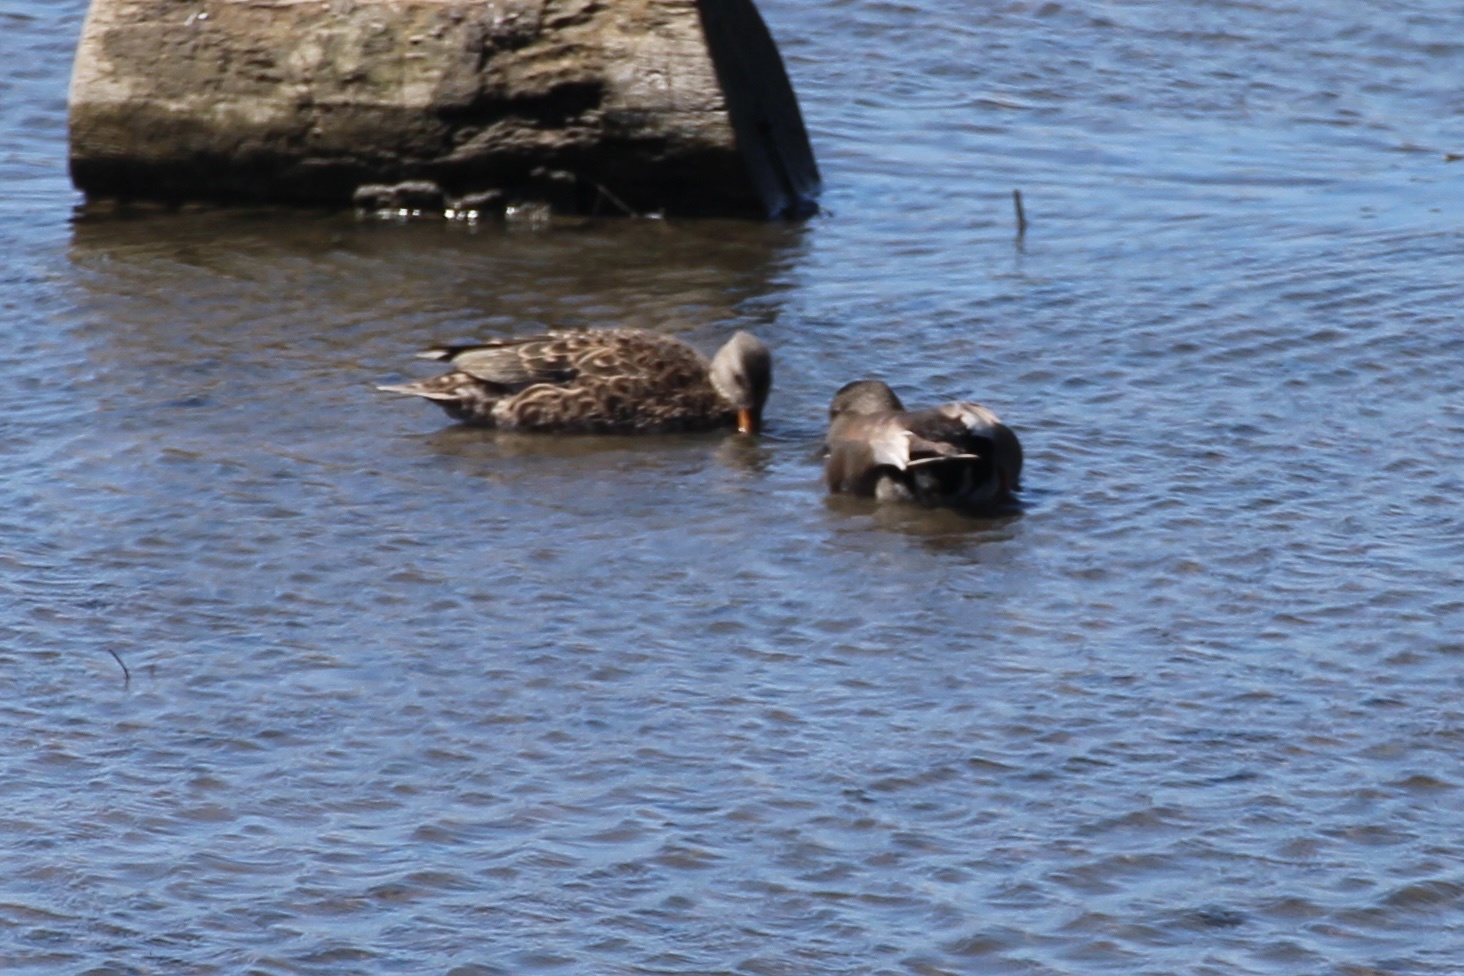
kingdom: Animalia
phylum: Chordata
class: Aves
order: Anseriformes
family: Anatidae
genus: Mareca
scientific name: Mareca strepera
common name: Gadwall
